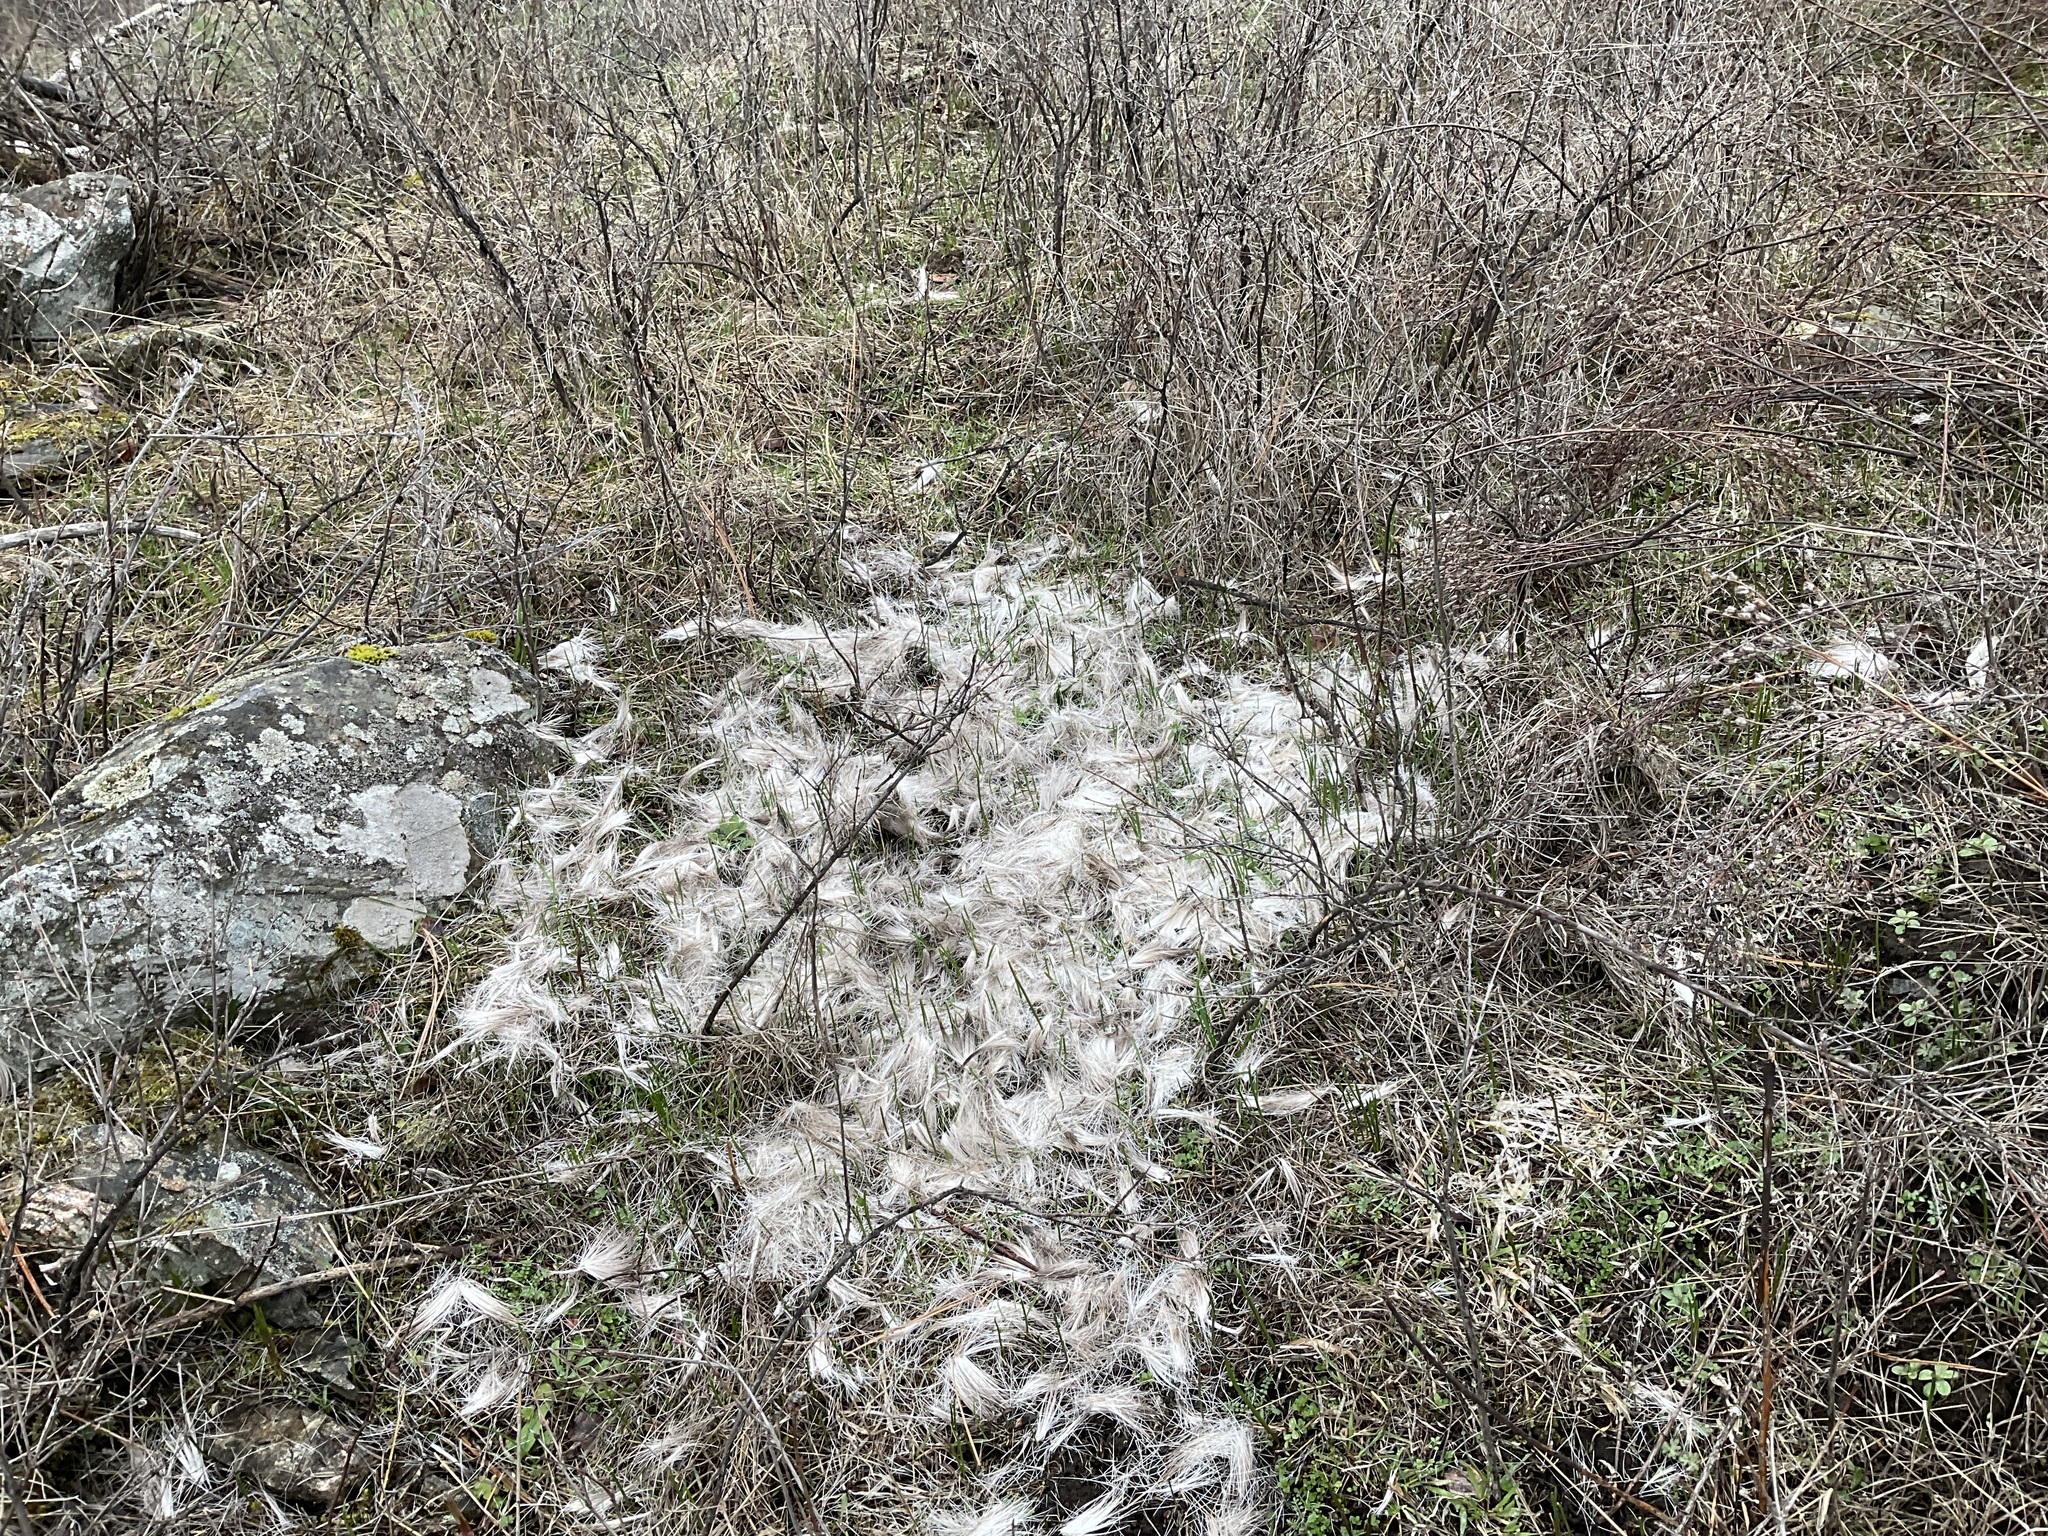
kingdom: Animalia
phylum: Chordata
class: Mammalia
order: Carnivora
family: Felidae
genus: Puma
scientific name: Puma concolor
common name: Puma
